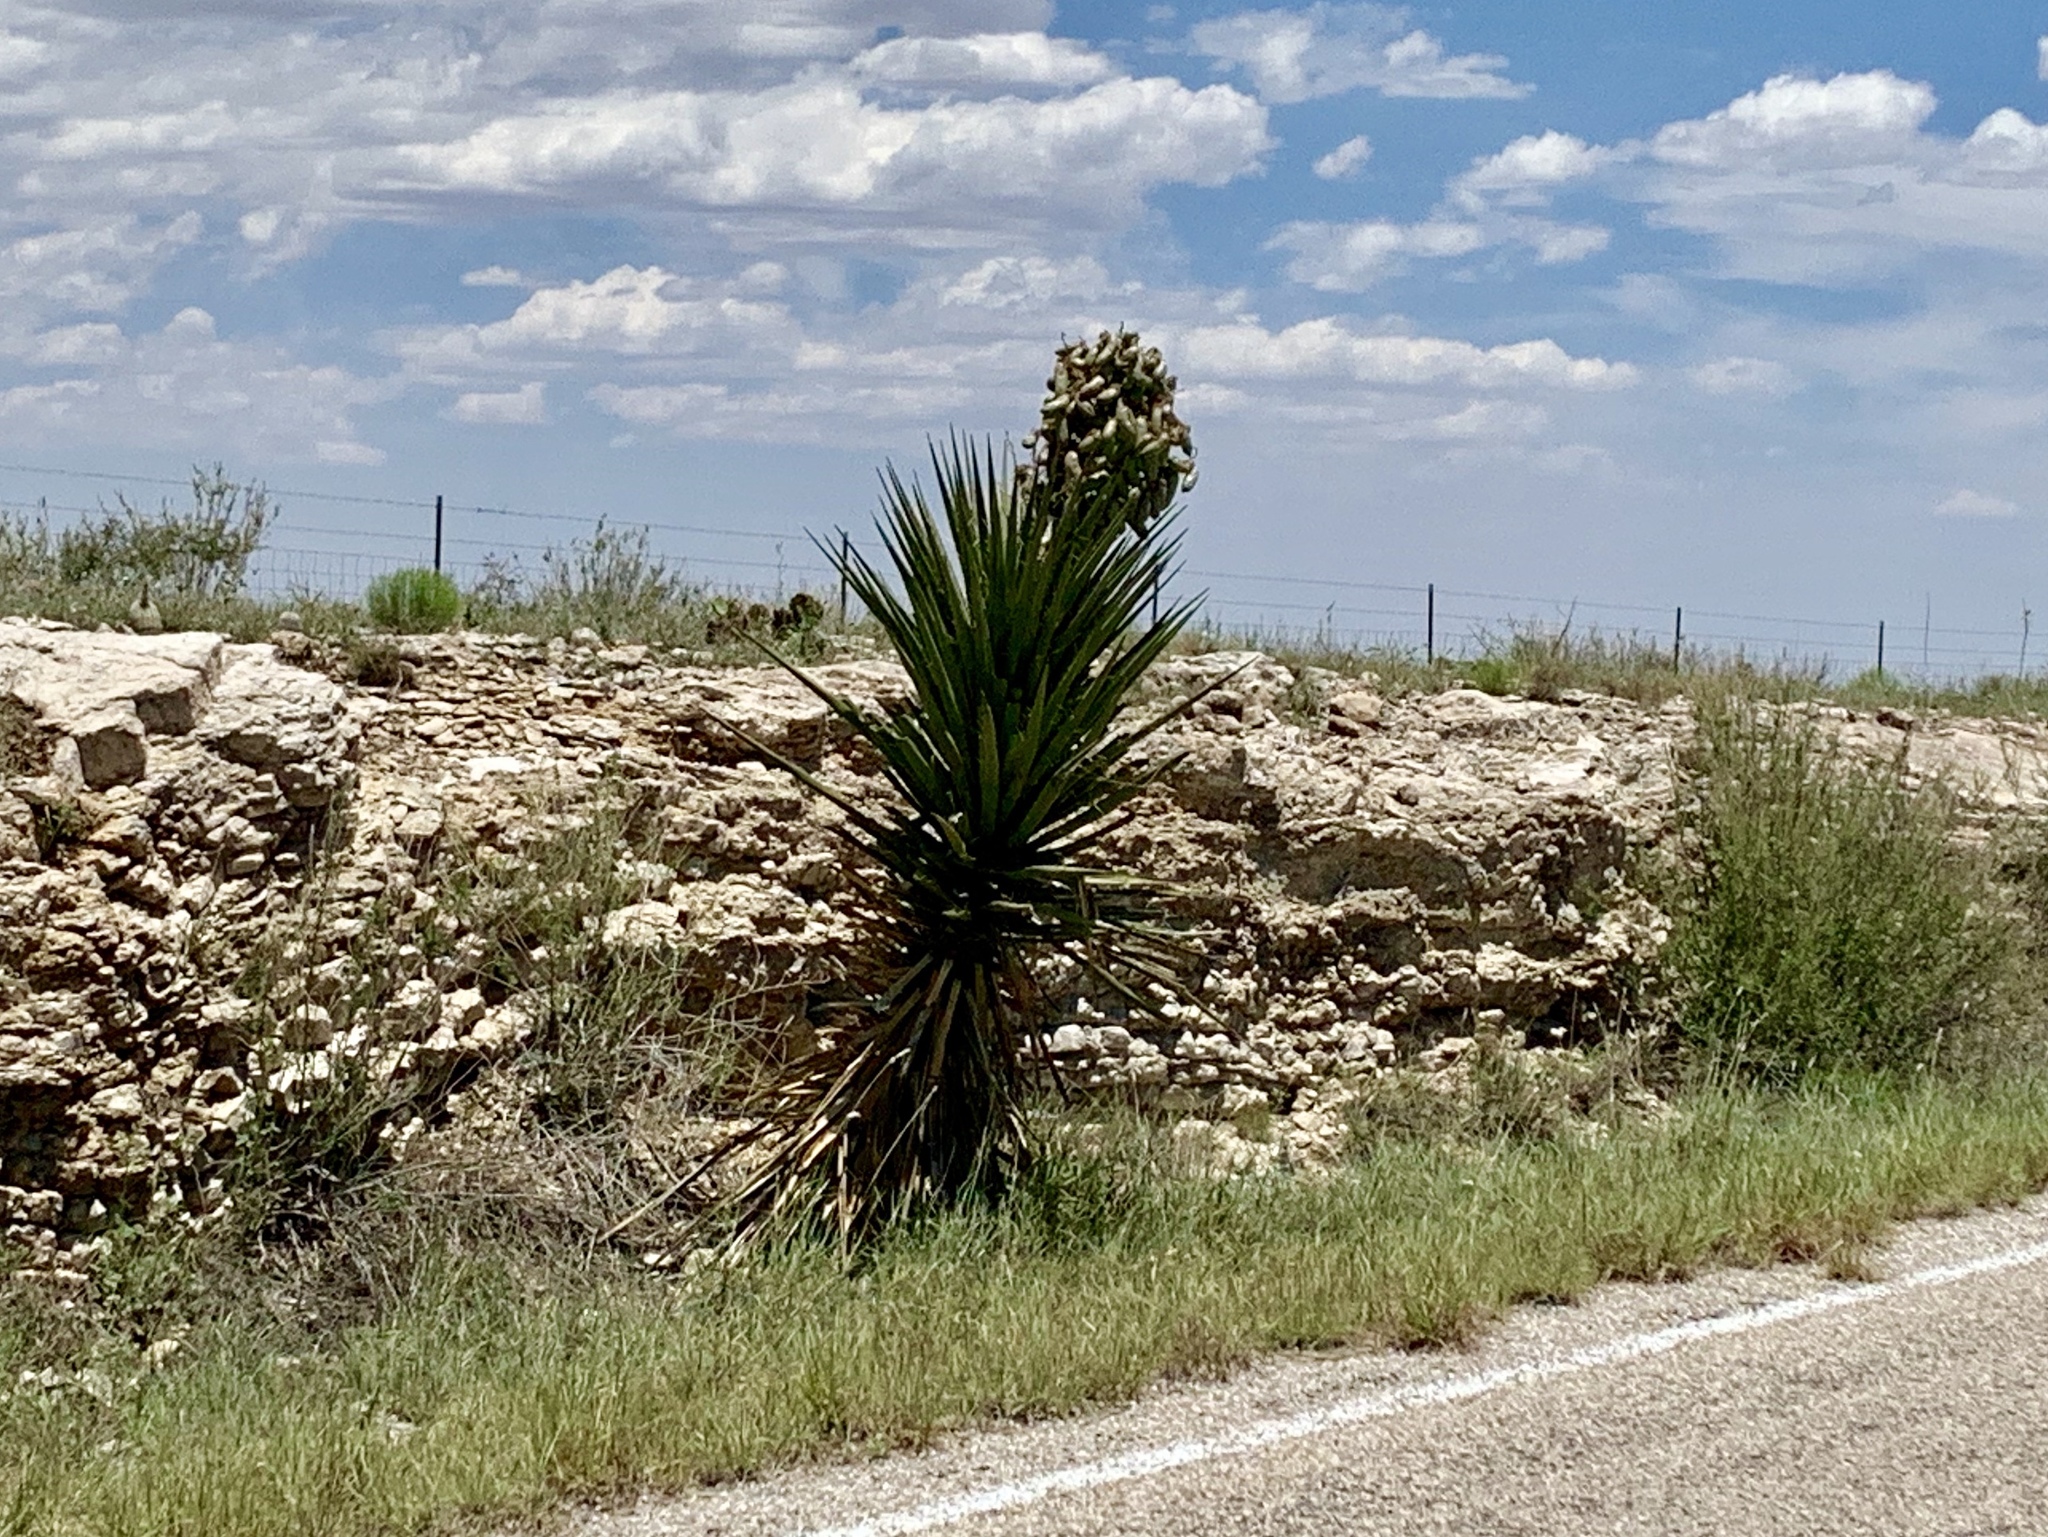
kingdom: Plantae
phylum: Tracheophyta
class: Liliopsida
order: Asparagales
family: Asparagaceae
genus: Yucca
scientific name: Yucca treculiana
